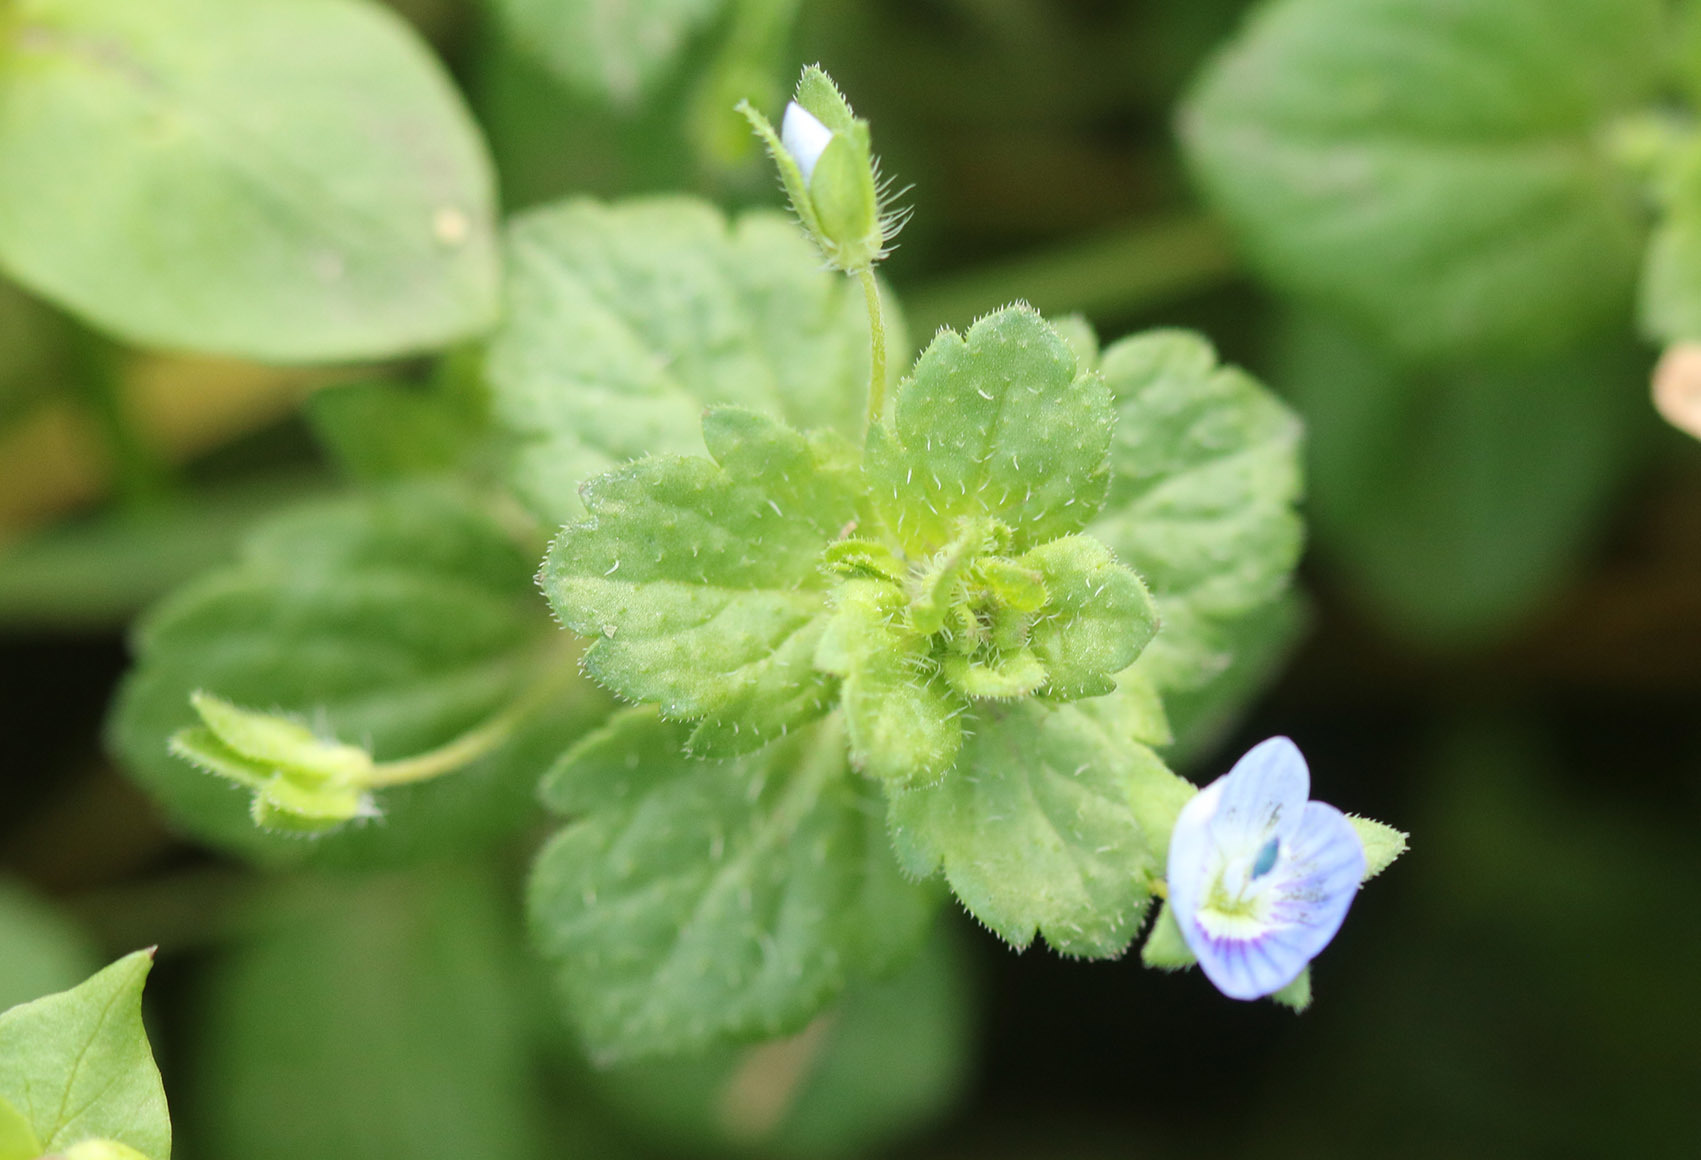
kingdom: Plantae
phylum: Tracheophyta
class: Magnoliopsida
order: Lamiales
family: Plantaginaceae
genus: Veronica
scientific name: Veronica persica
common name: Common field-speedwell
